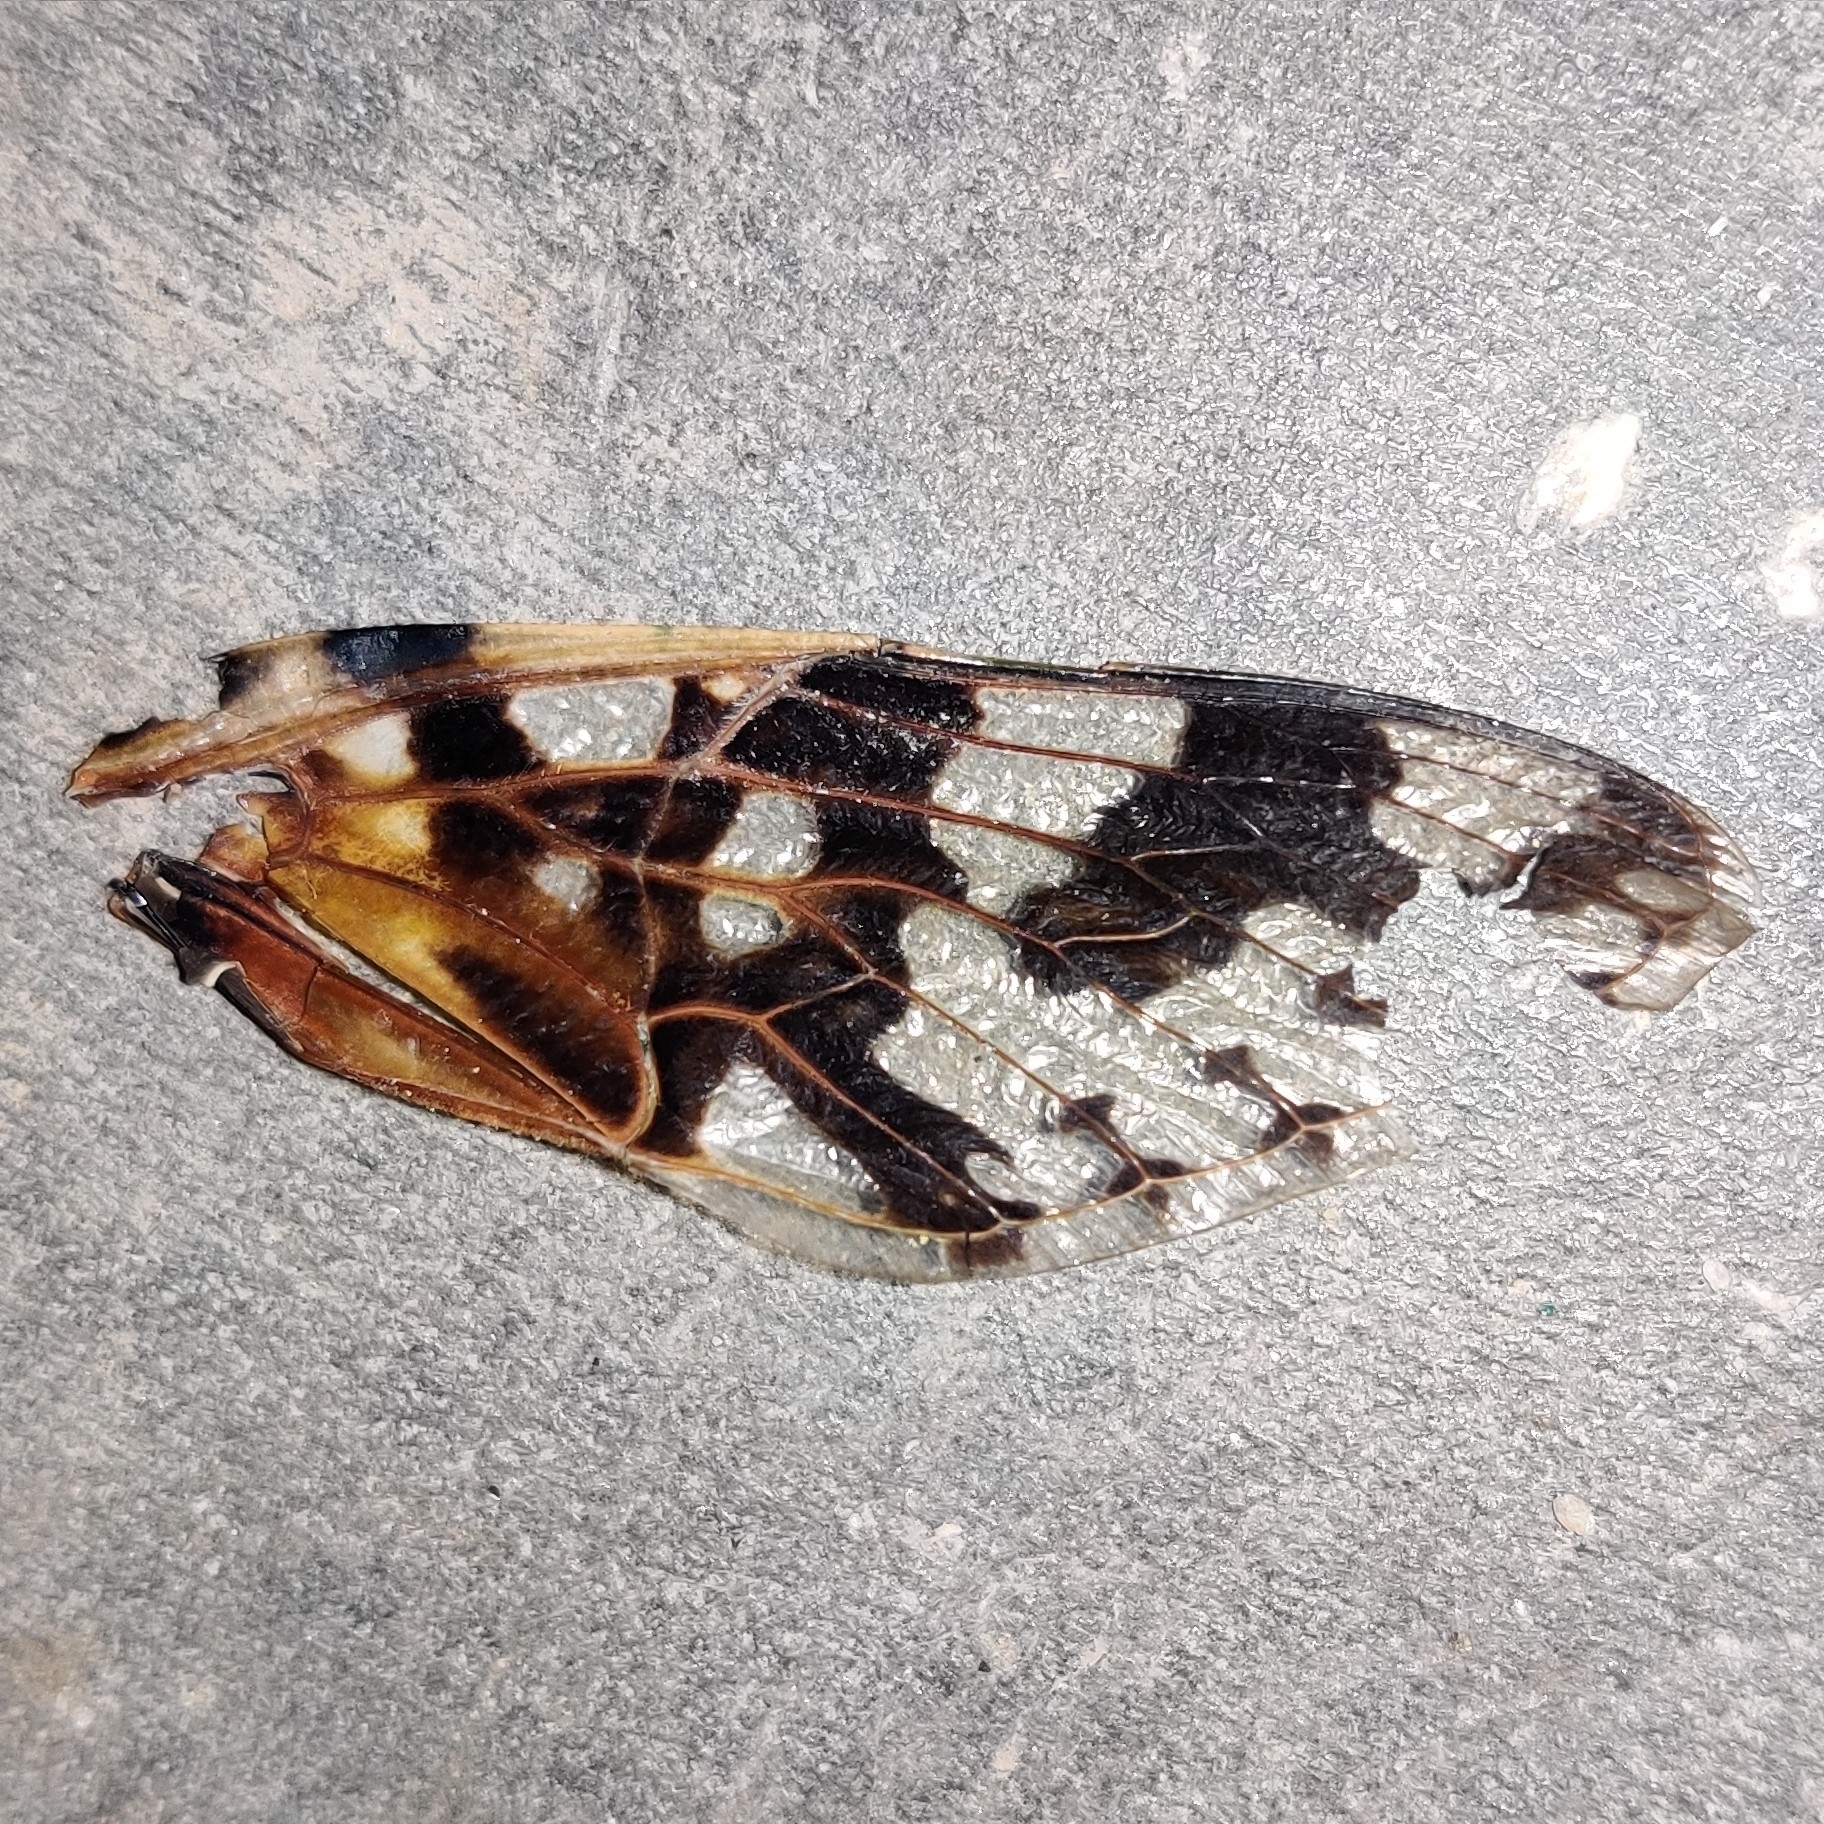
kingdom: Animalia
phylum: Arthropoda
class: Insecta
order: Hemiptera
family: Cicadidae
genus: Eopycna
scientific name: Eopycna repanda
